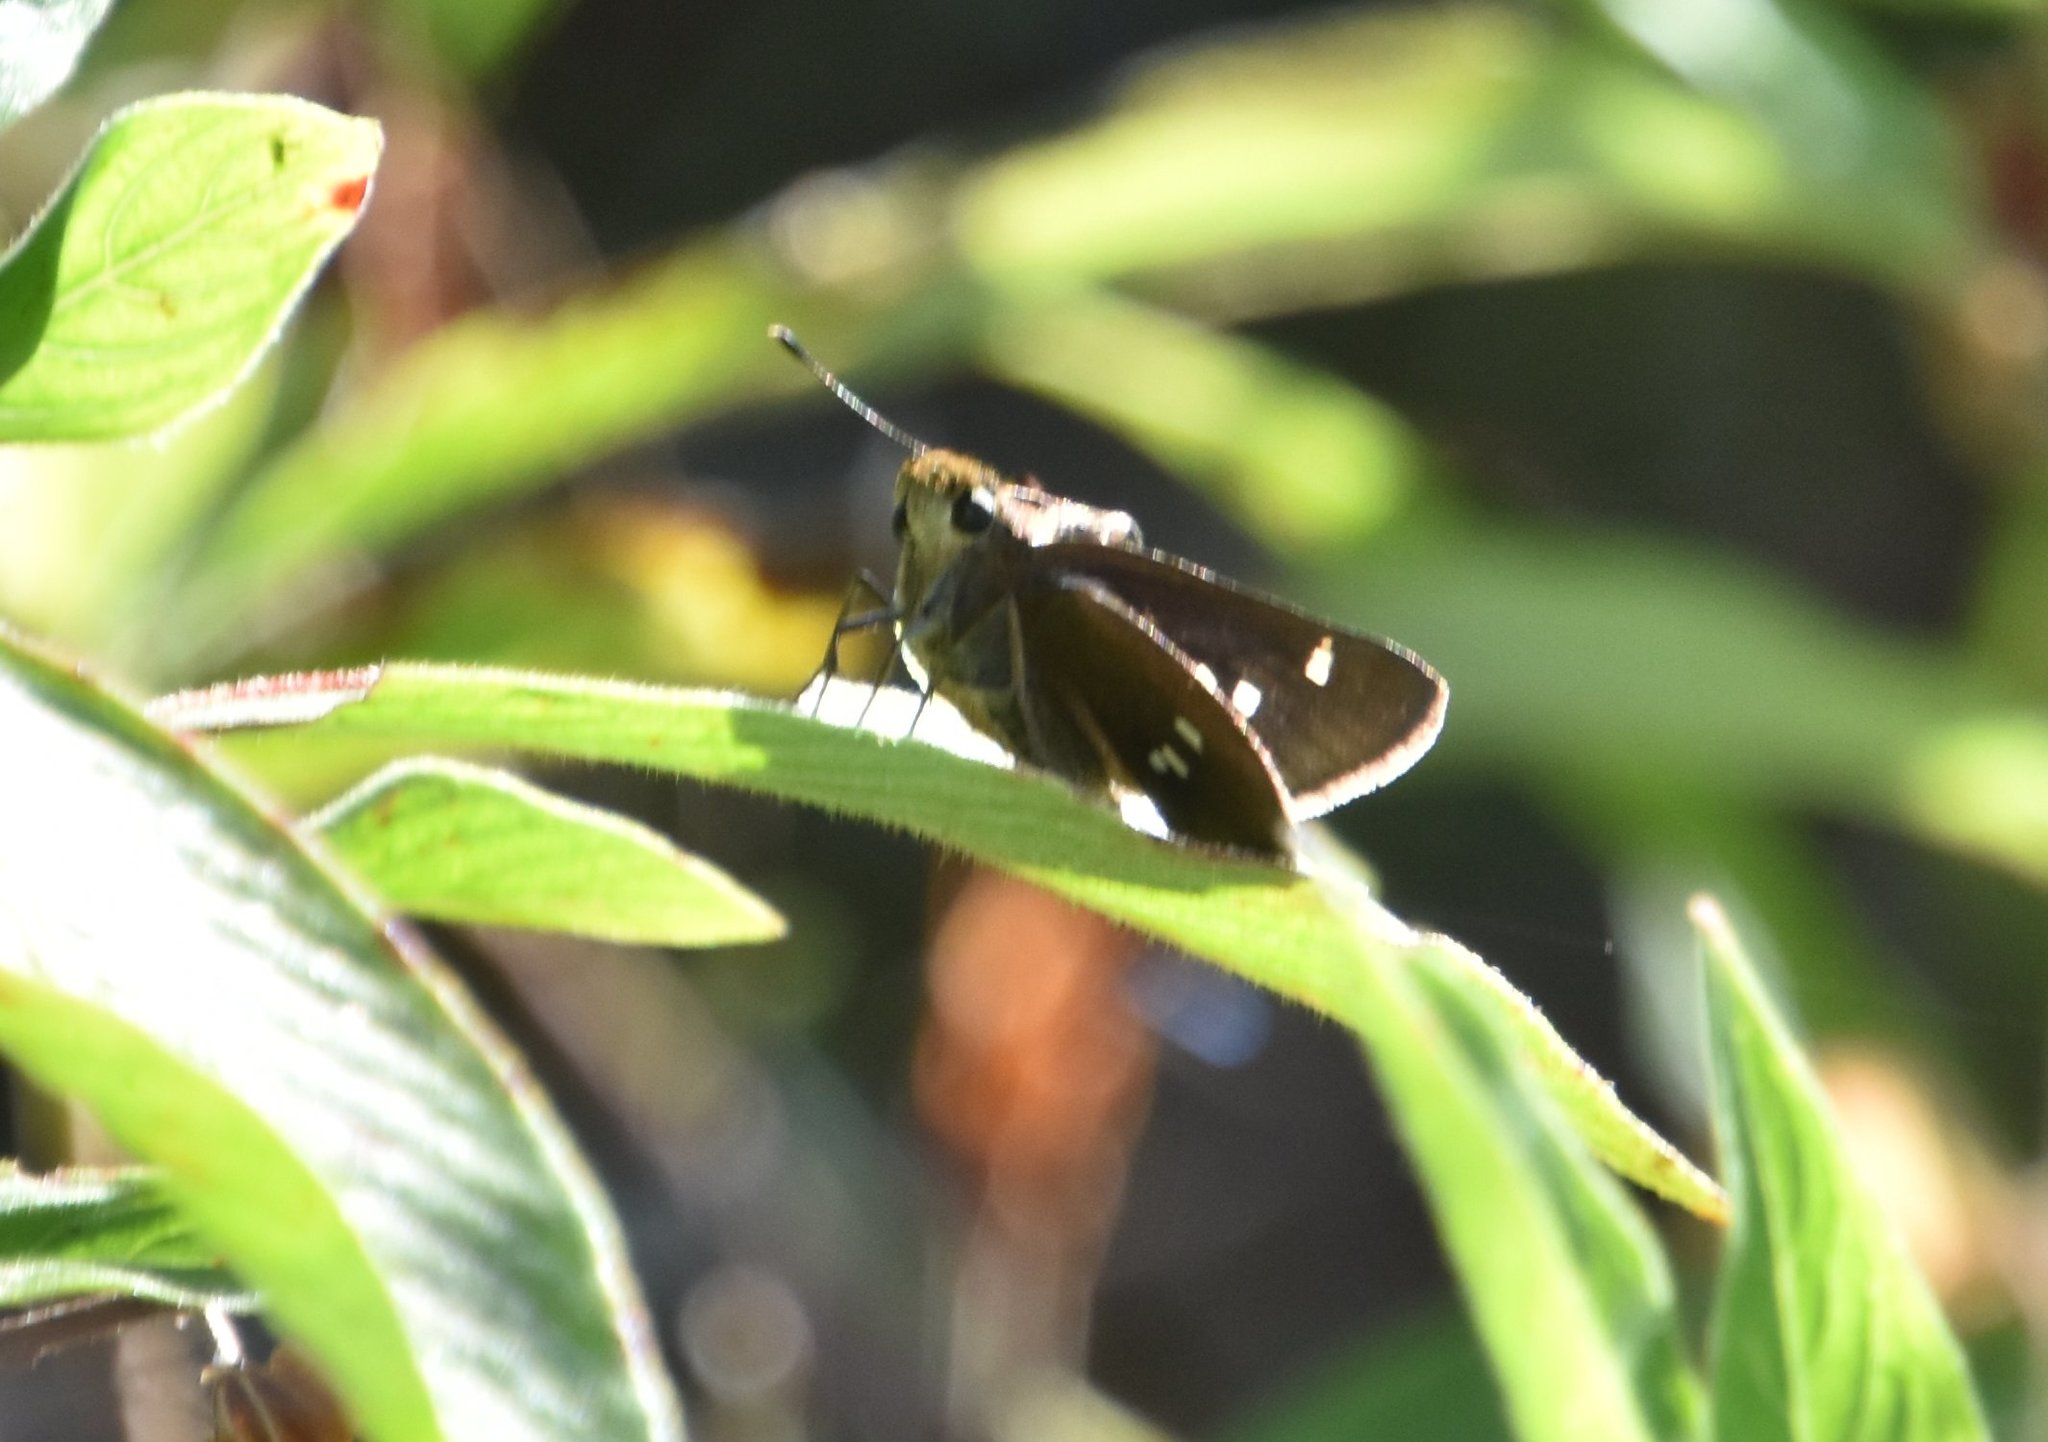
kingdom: Animalia
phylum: Arthropoda
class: Insecta
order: Lepidoptera
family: Hesperiidae
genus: Oligoria
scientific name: Oligoria maculata
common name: Twin-spot skipper
